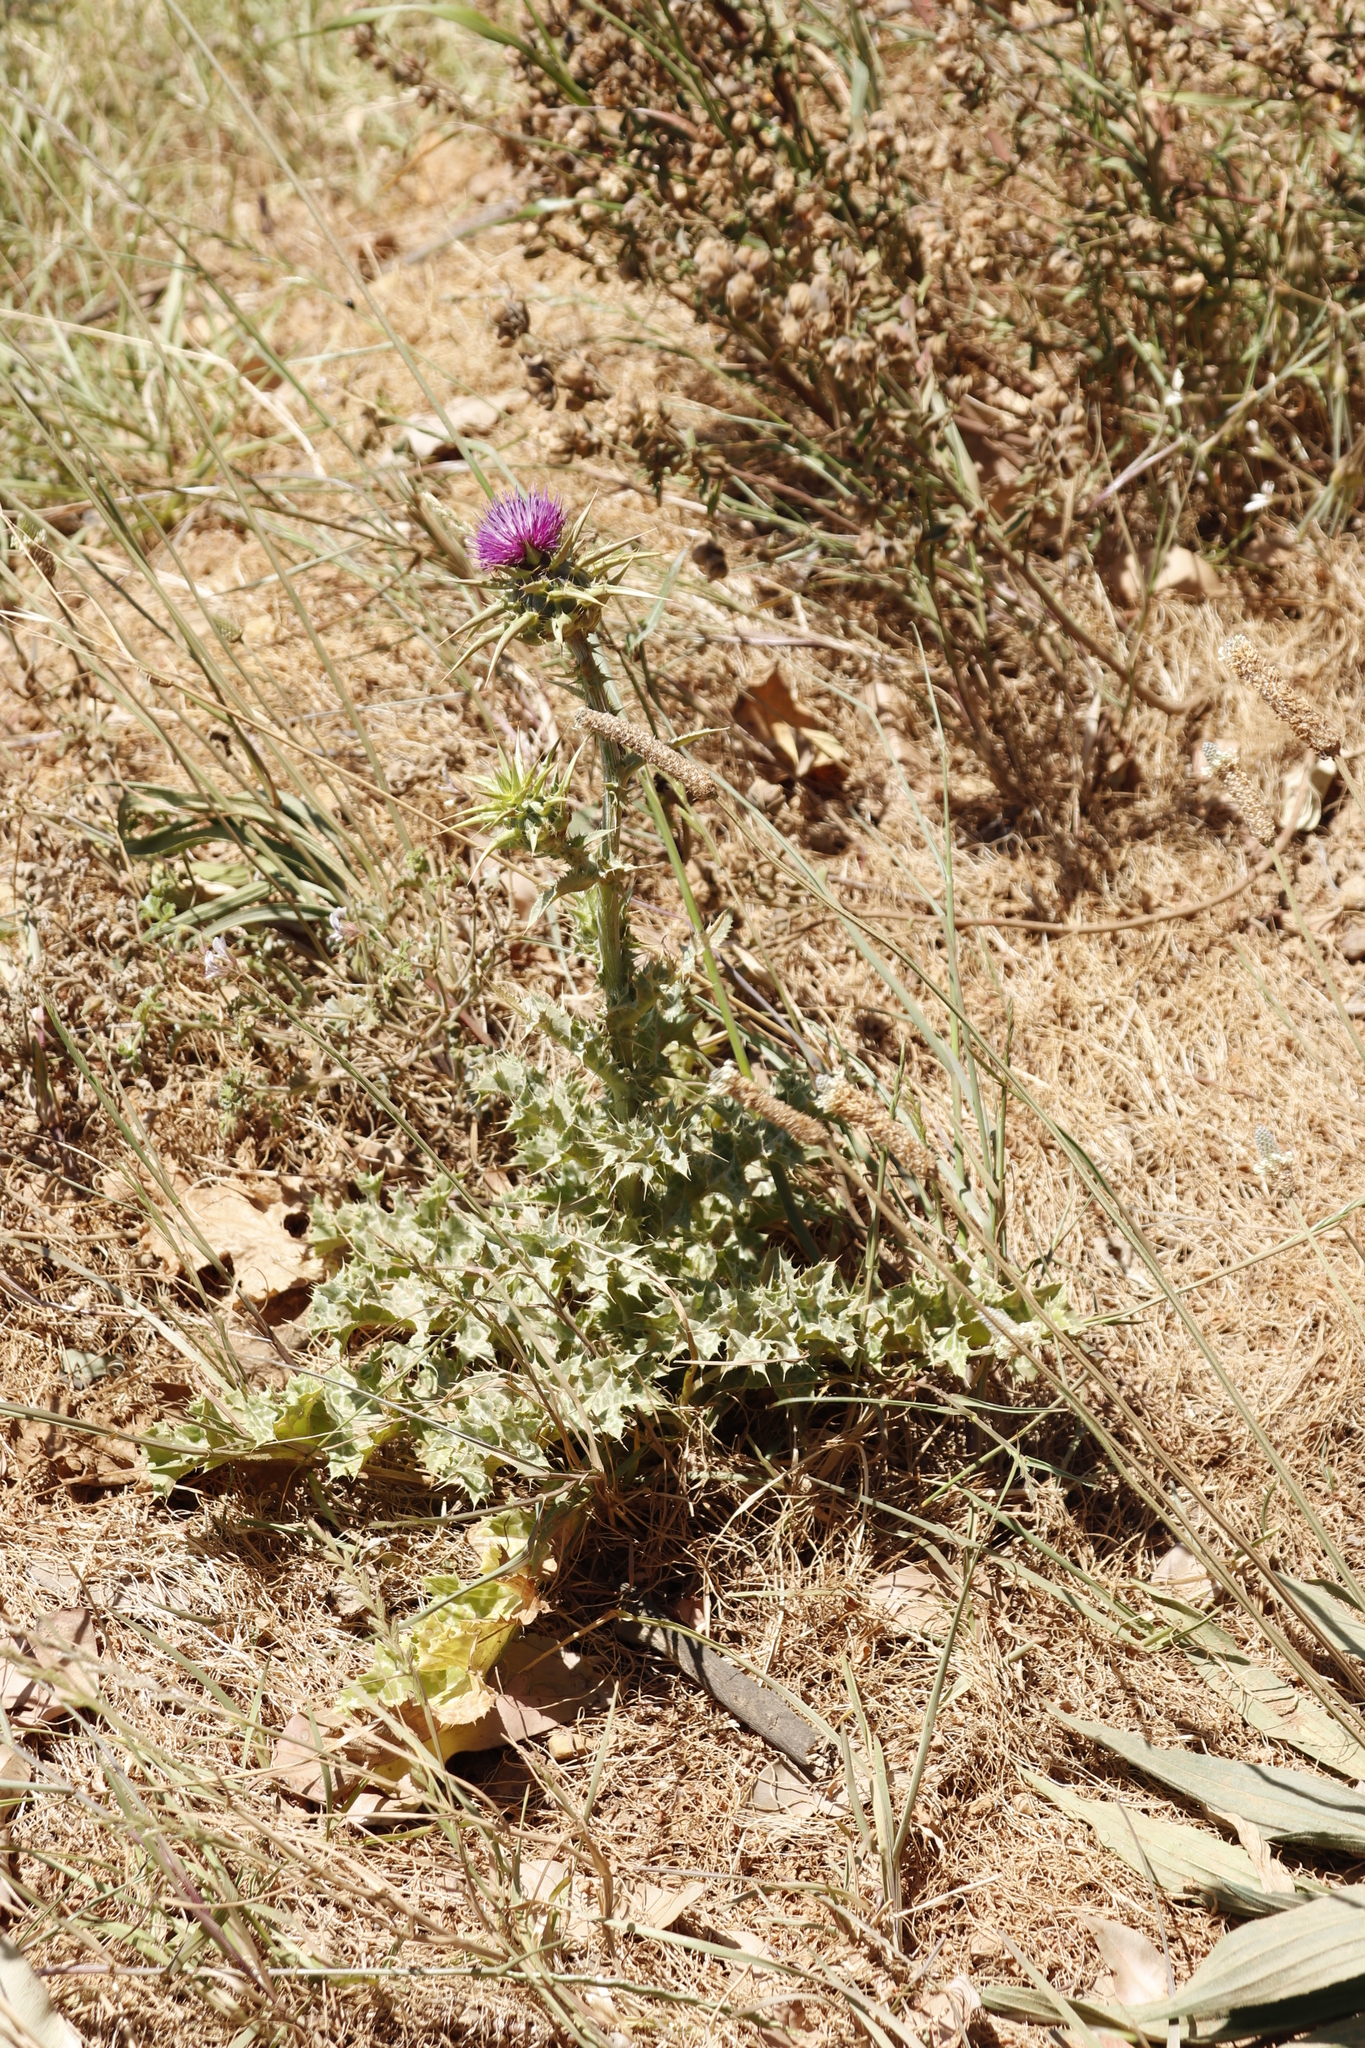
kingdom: Plantae
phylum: Tracheophyta
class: Magnoliopsida
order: Asterales
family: Asteraceae
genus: Silybum
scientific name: Silybum marianum
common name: Milk thistle
